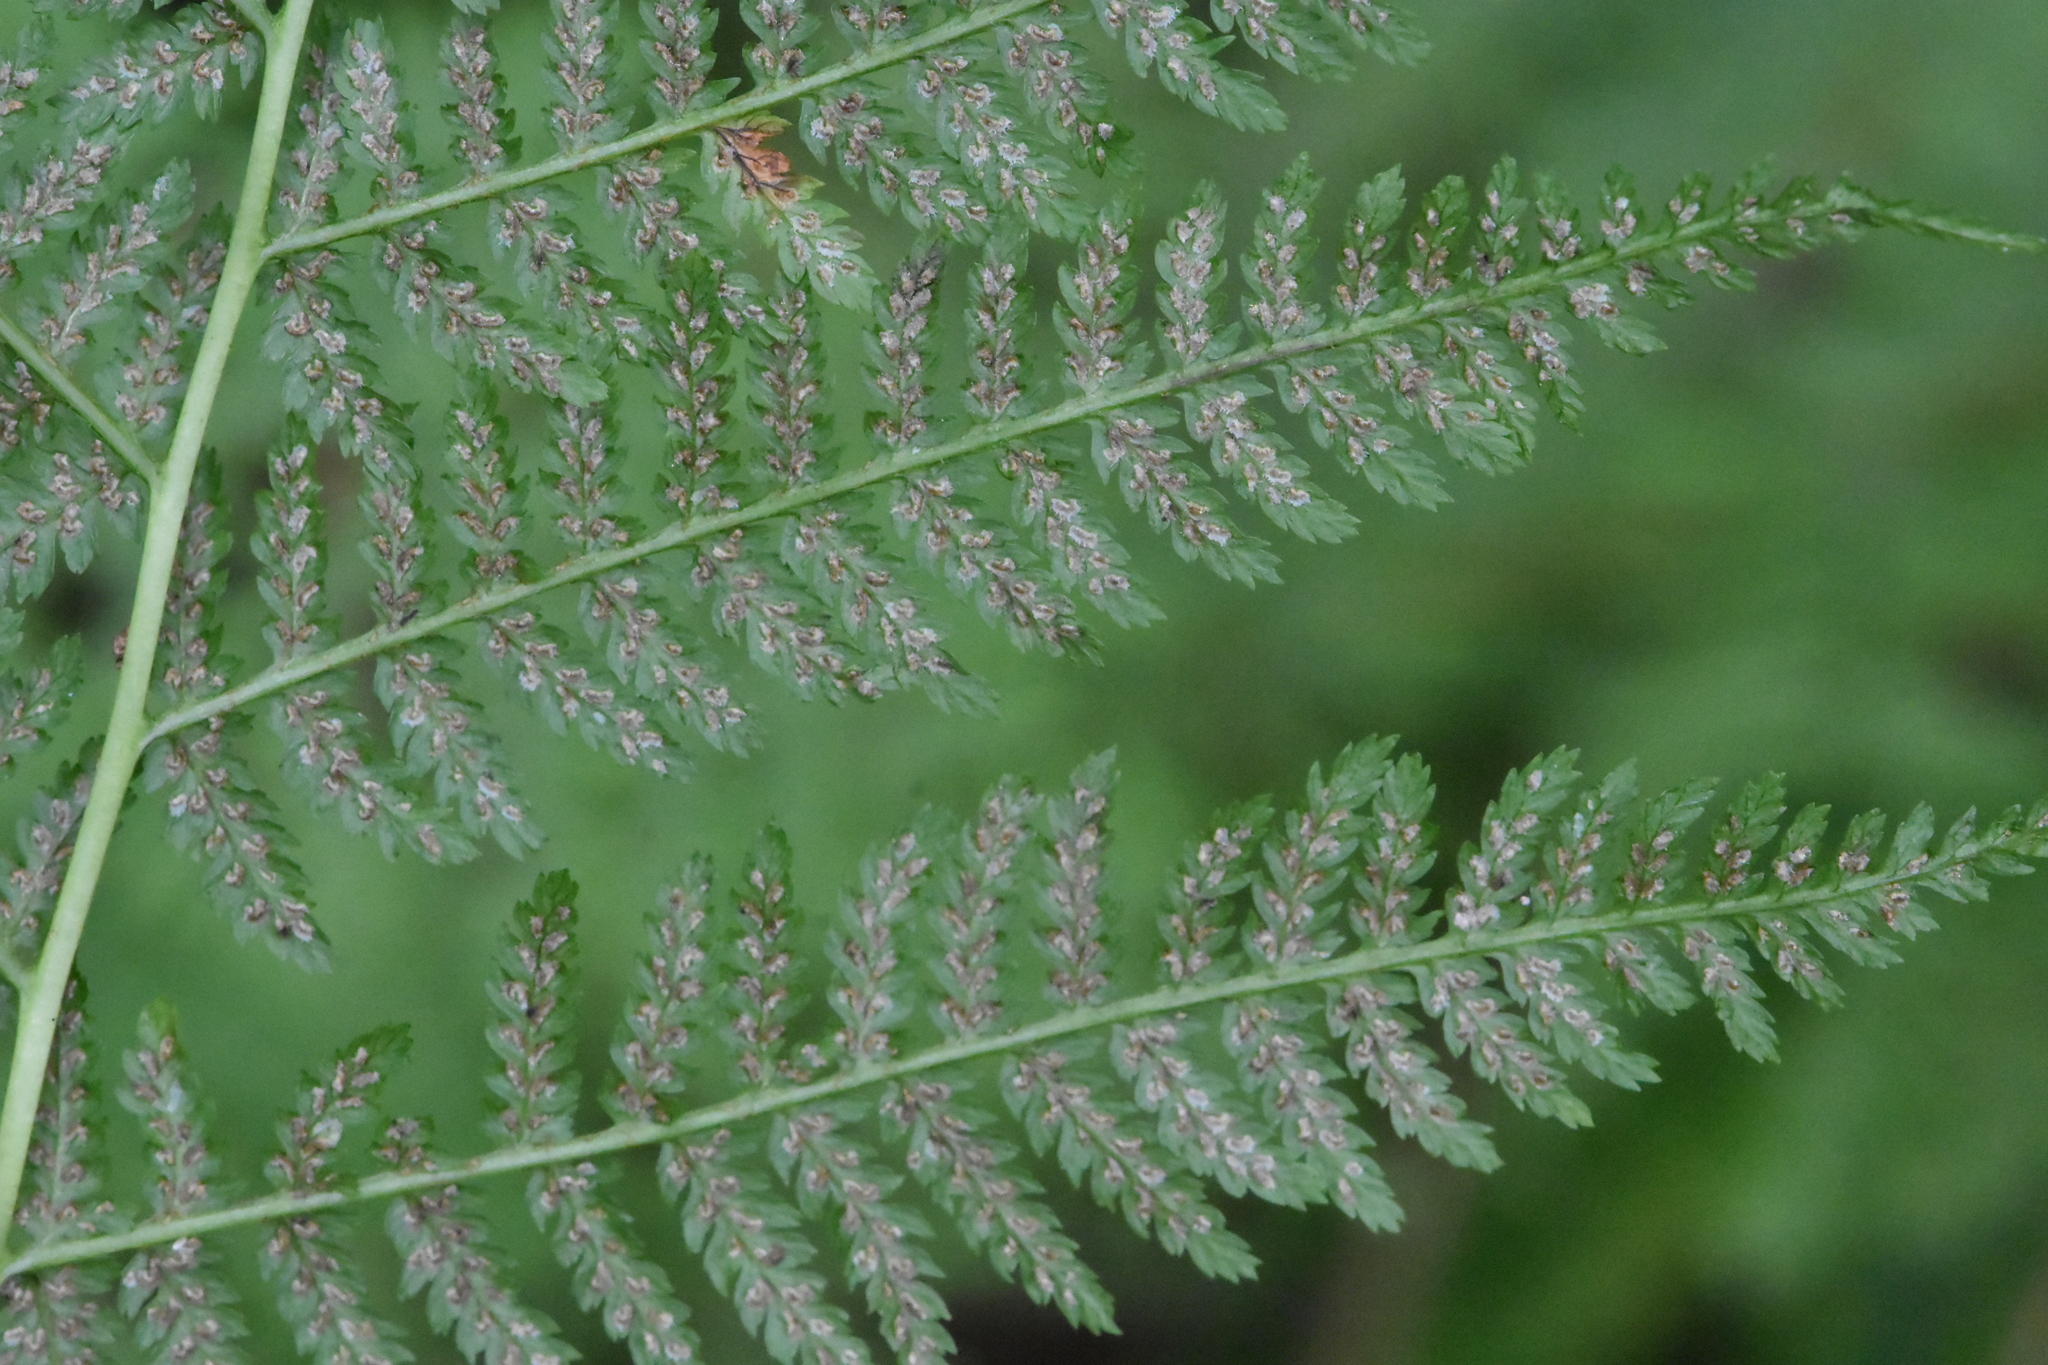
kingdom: Plantae
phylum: Tracheophyta
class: Polypodiopsida
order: Polypodiales
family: Athyriaceae
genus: Athyrium
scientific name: Athyrium filix-femina
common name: Lady fern
